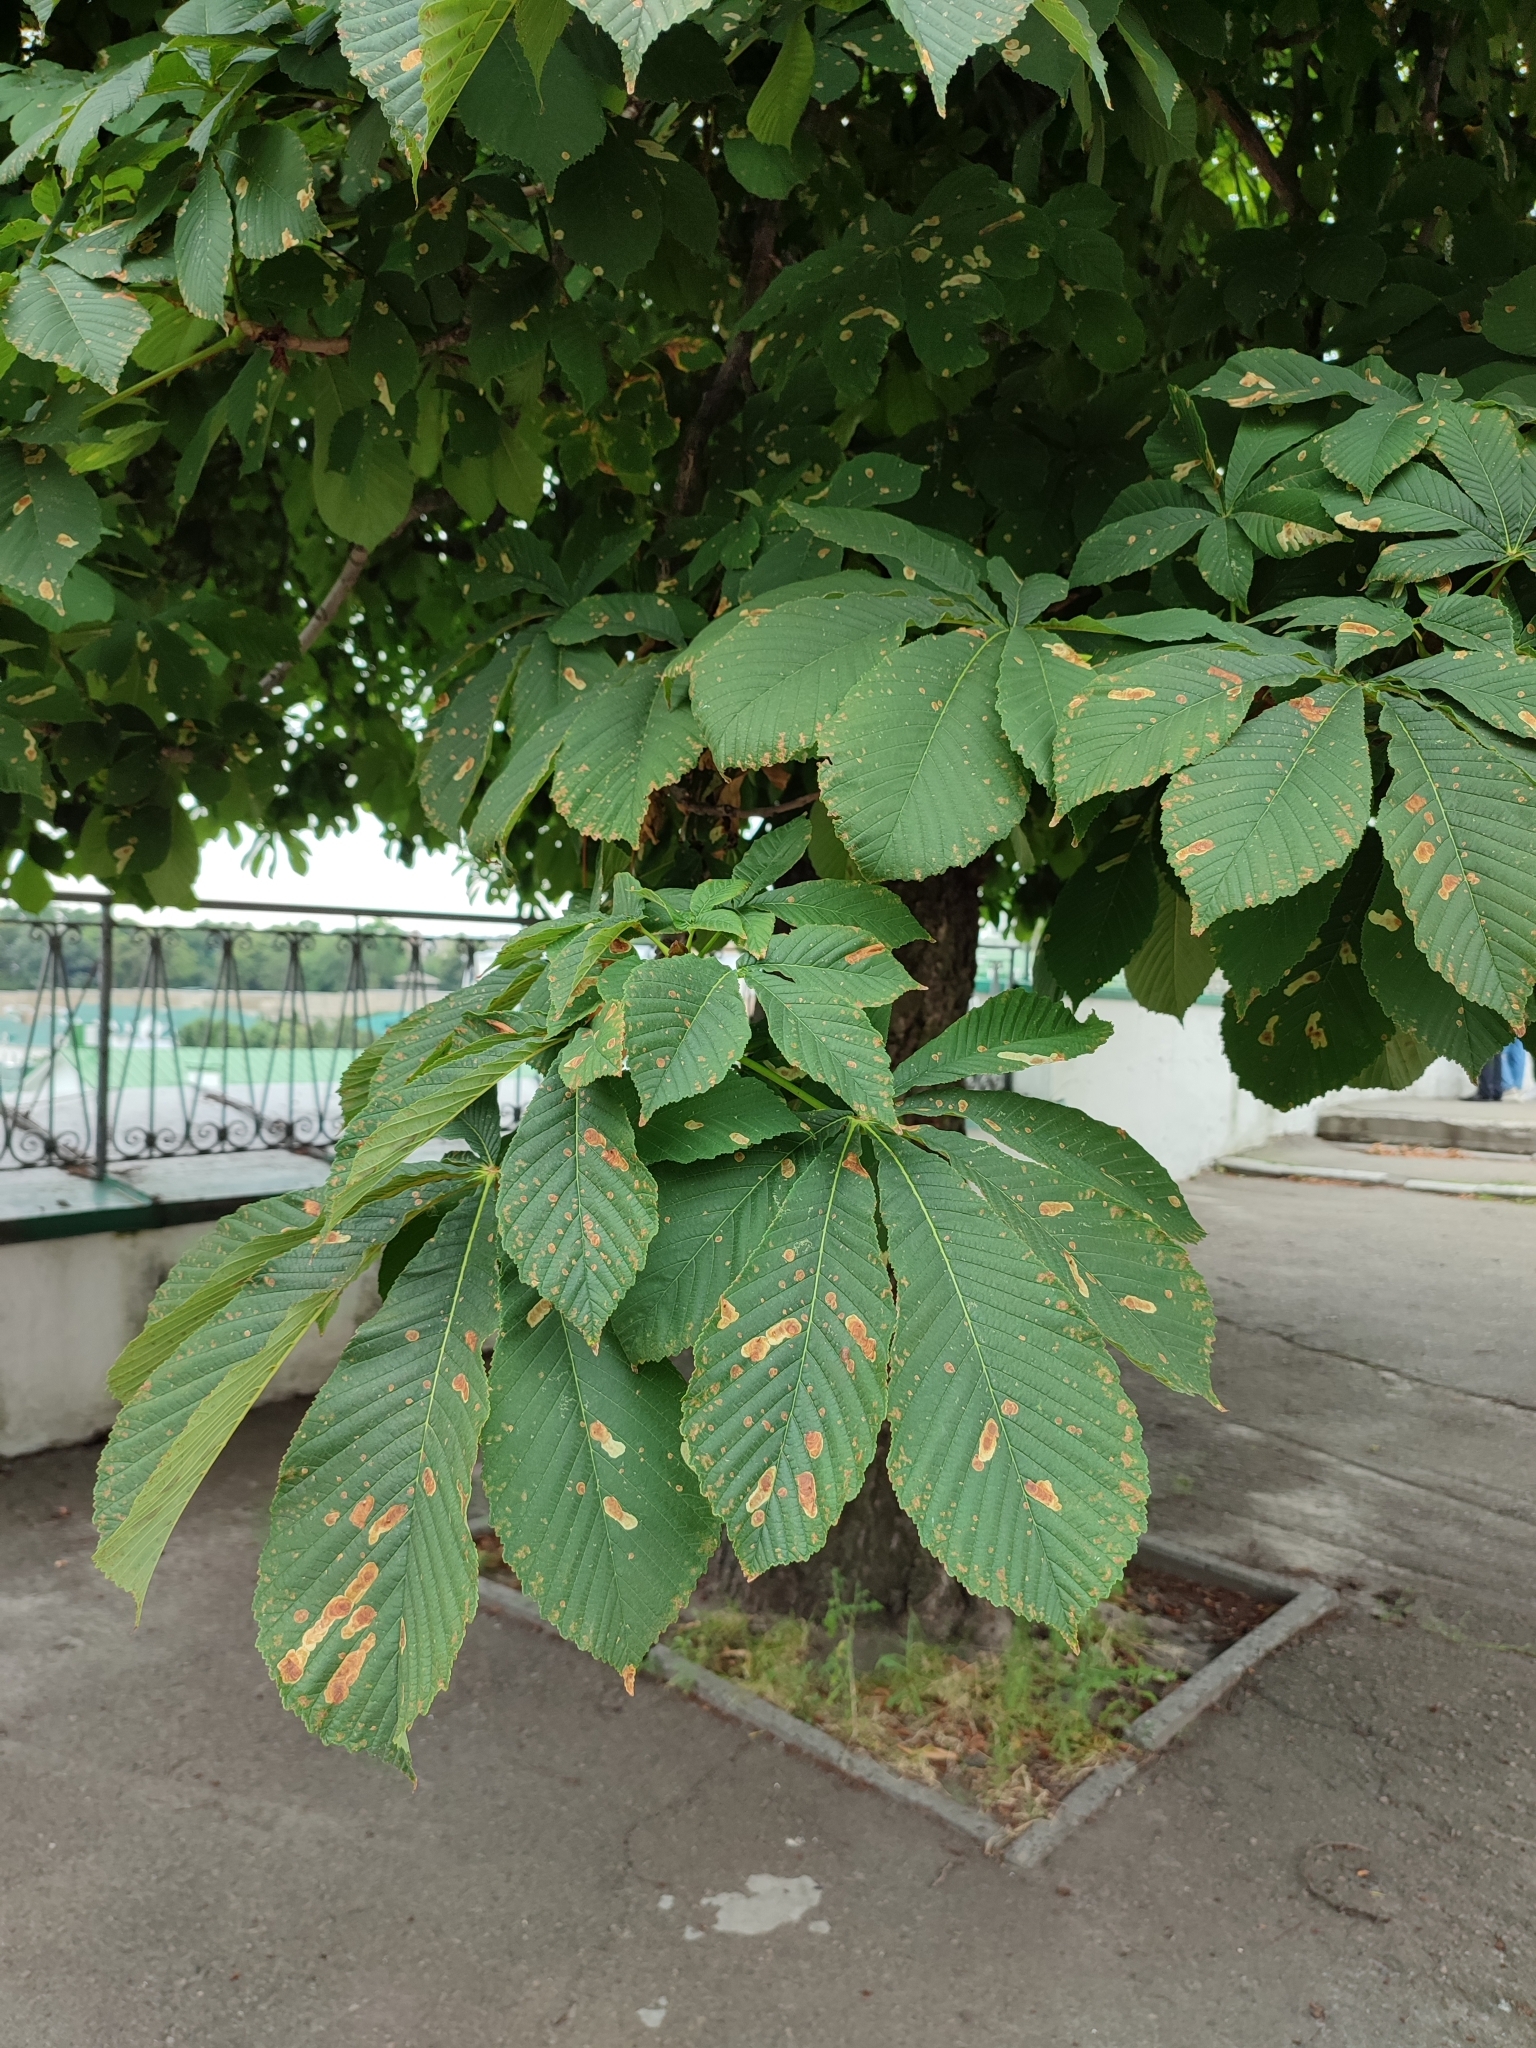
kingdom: Animalia
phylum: Arthropoda
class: Insecta
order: Lepidoptera
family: Gracillariidae
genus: Cameraria
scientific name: Cameraria ohridella
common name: Horse-chestnut leaf-miner
